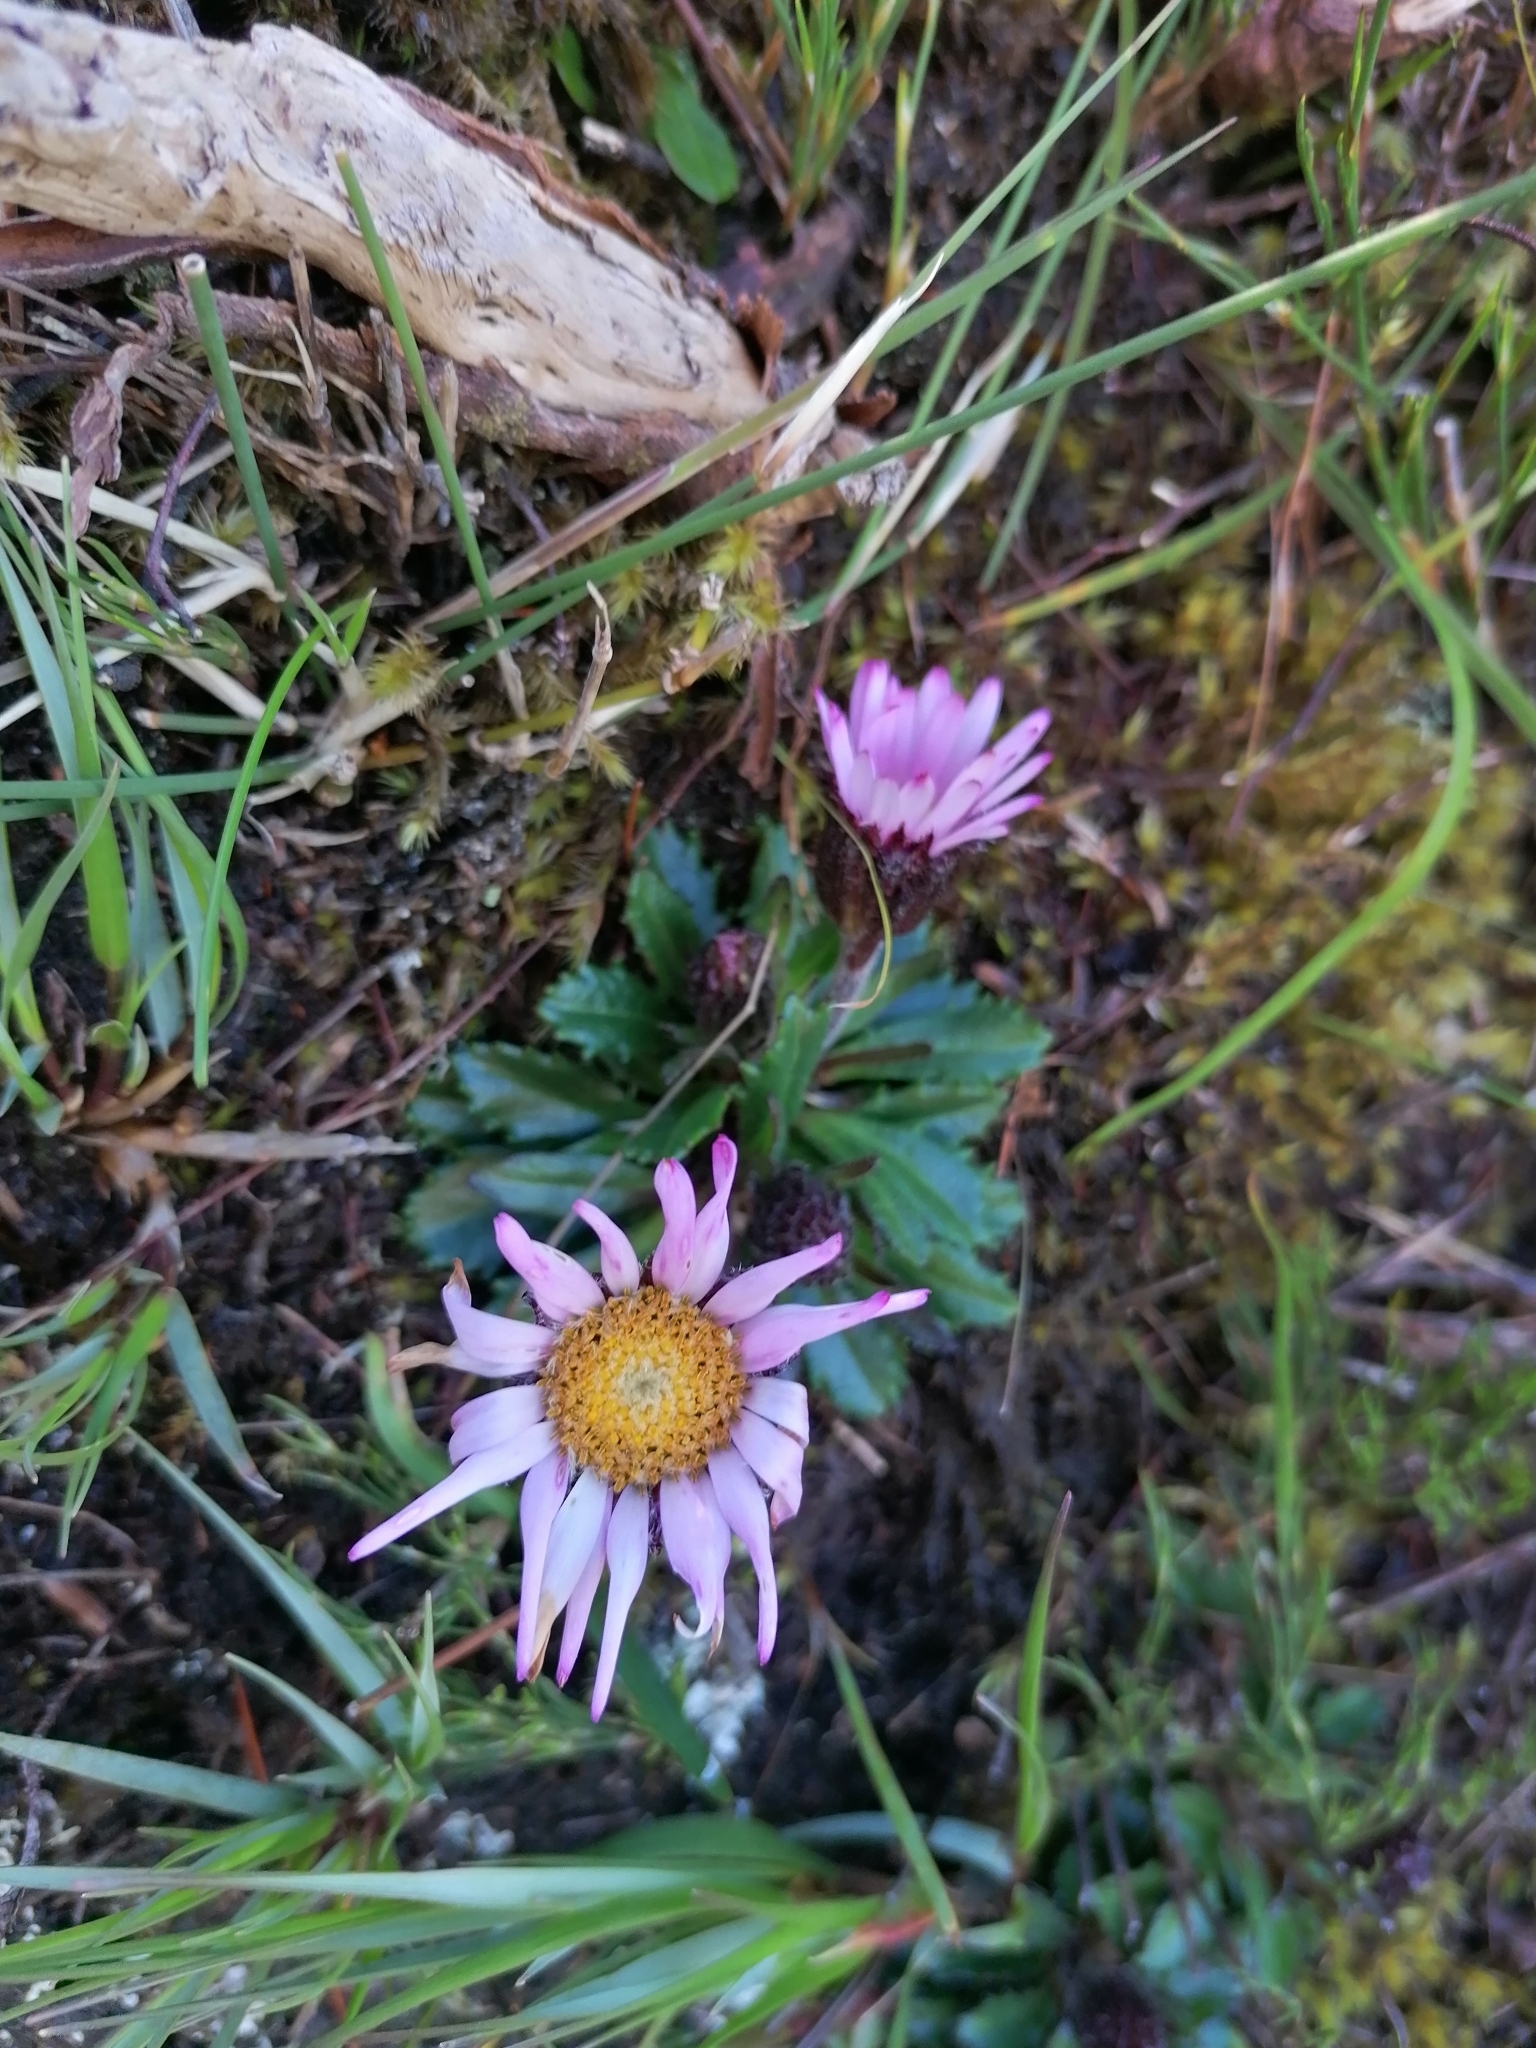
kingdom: Plantae
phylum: Tracheophyta
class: Magnoliopsida
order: Asterales
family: Asteraceae
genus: Zyrphelis
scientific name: Zyrphelis crenata
